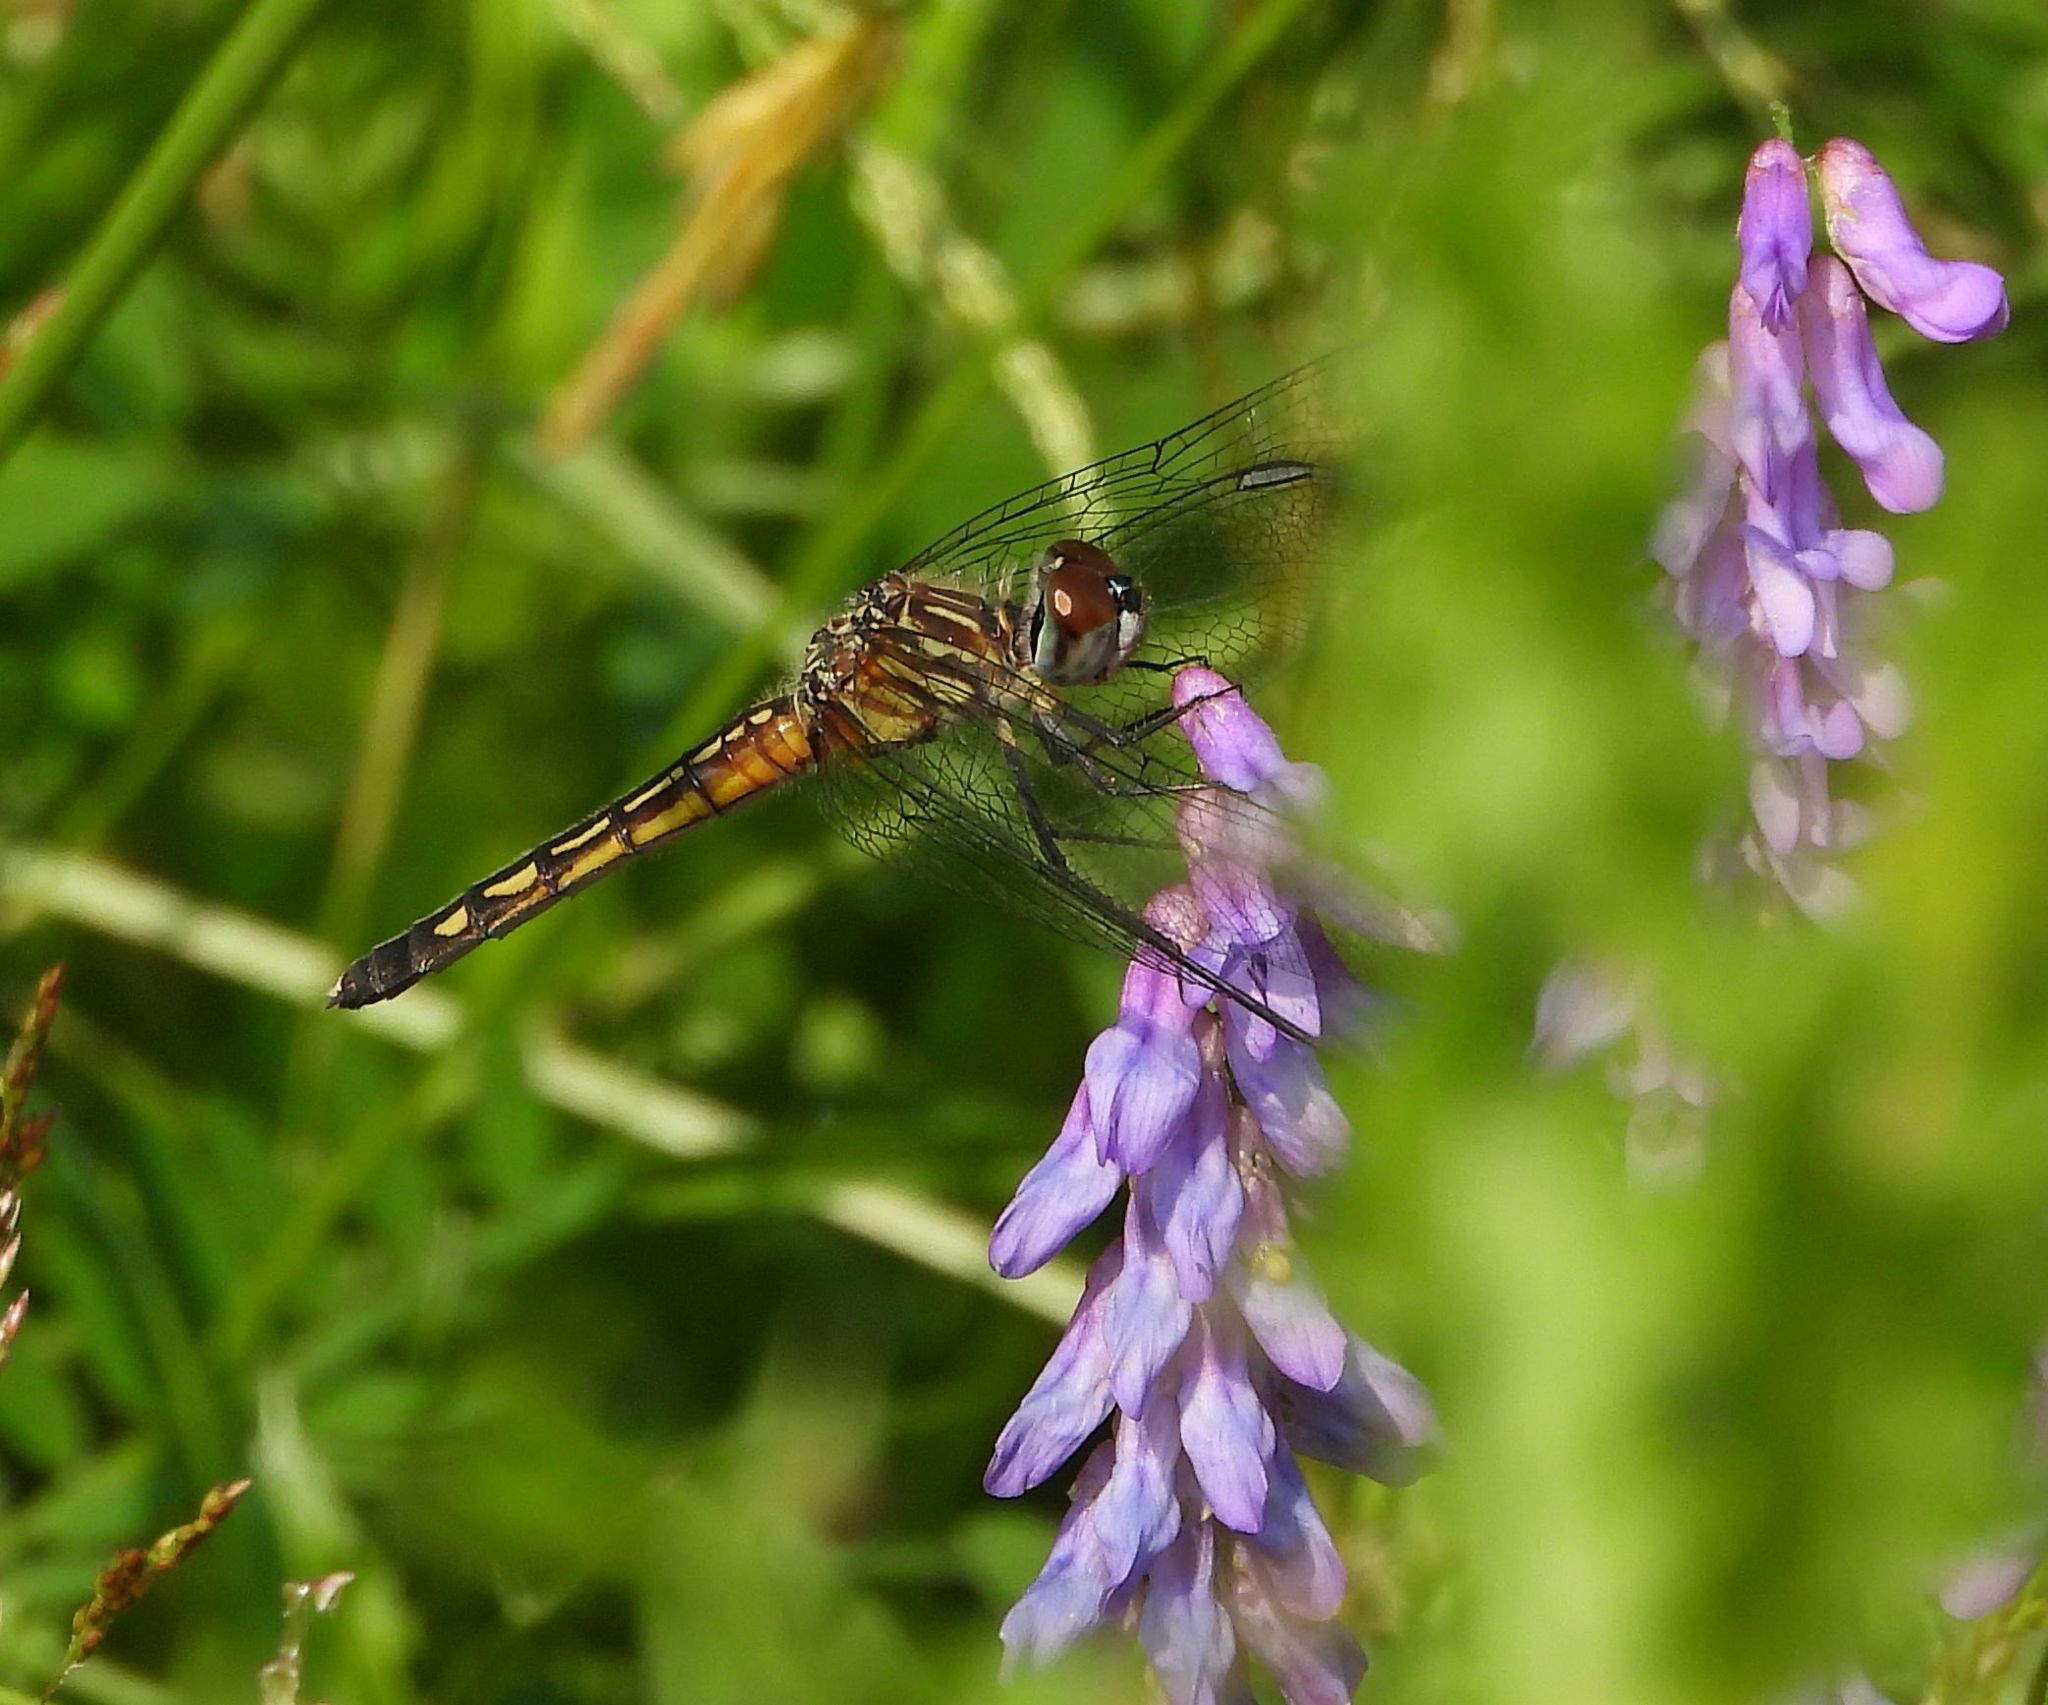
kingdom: Animalia
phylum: Arthropoda
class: Insecta
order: Odonata
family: Libellulidae
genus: Pachydiplax
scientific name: Pachydiplax longipennis
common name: Blue dasher
